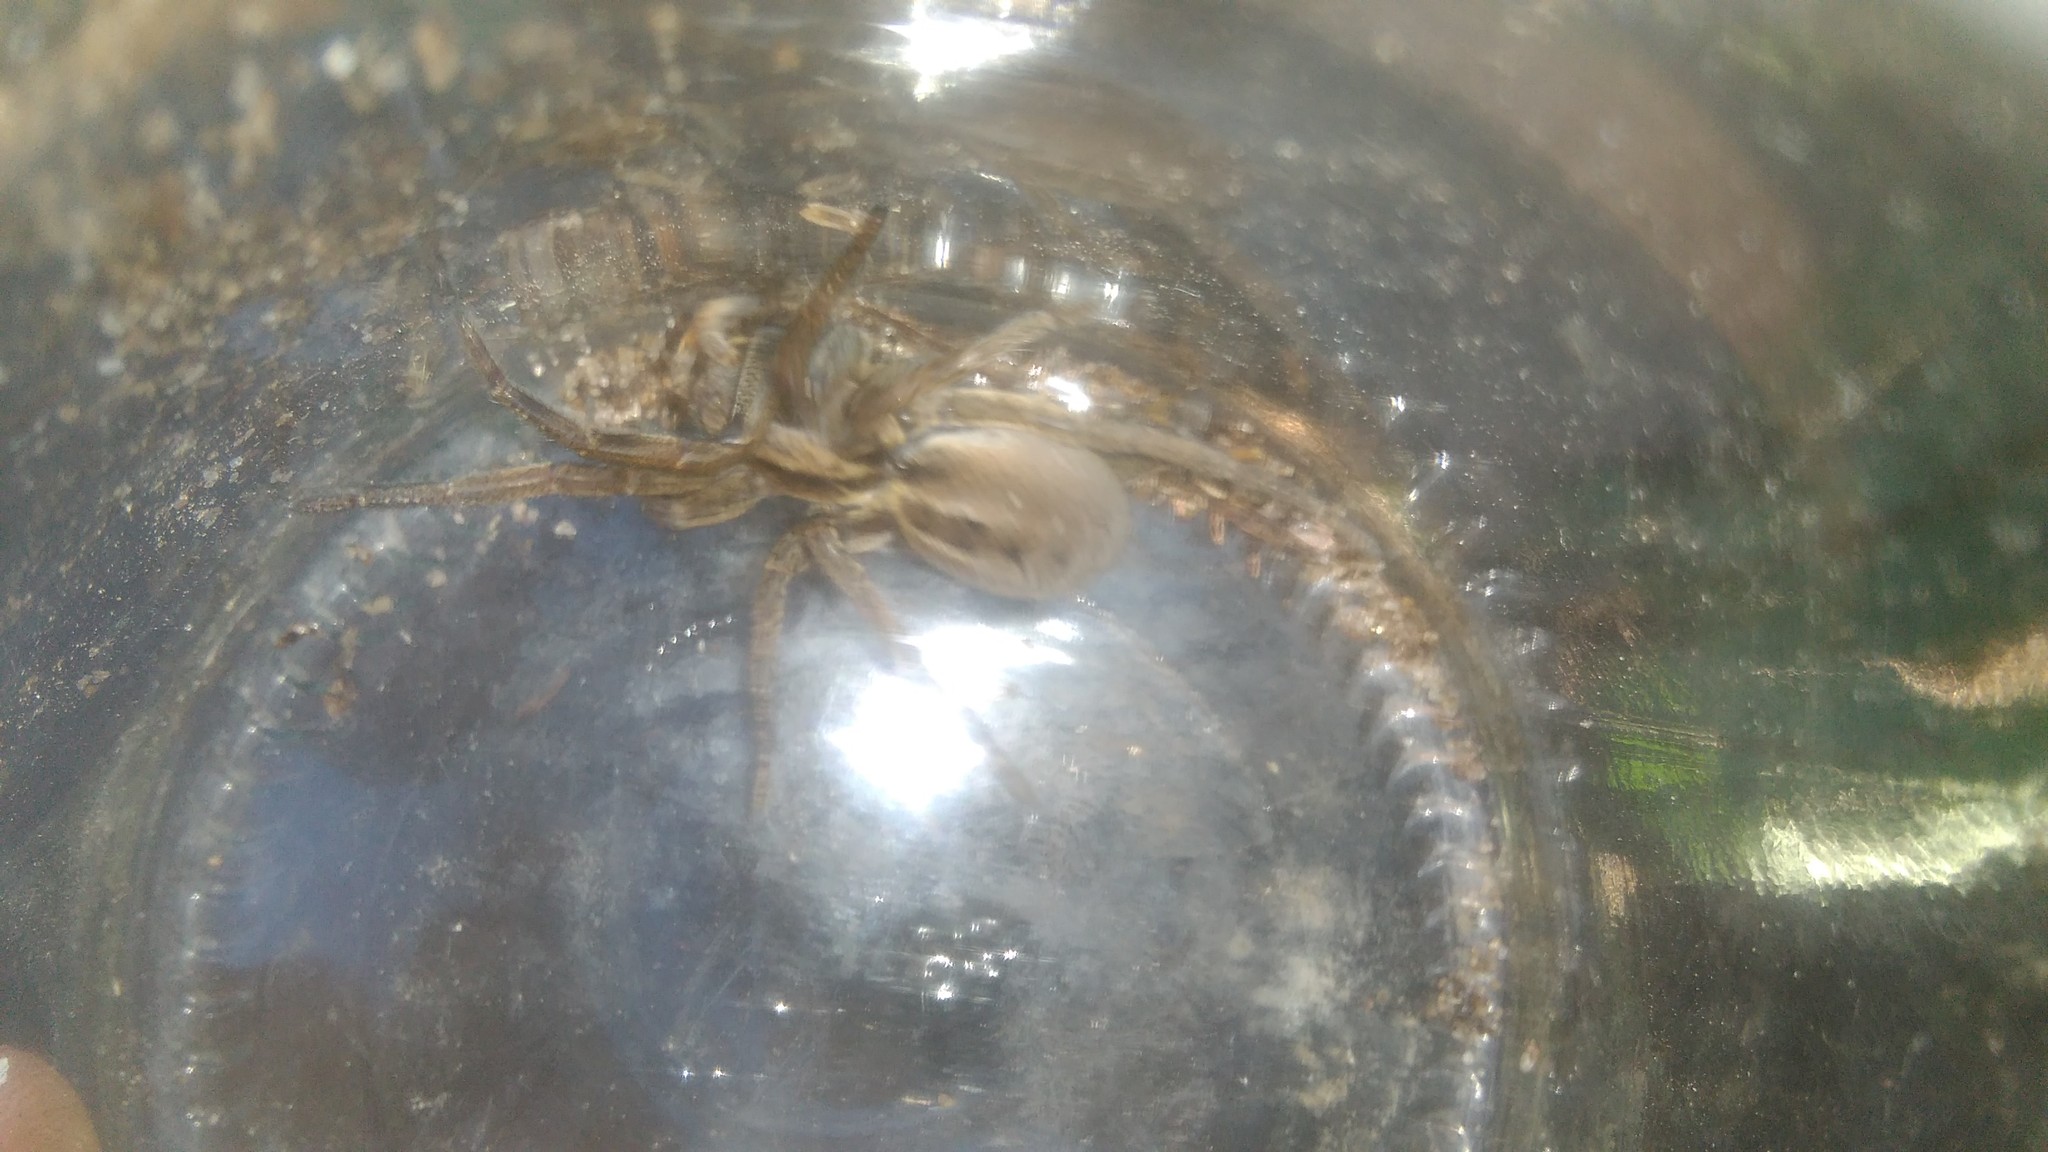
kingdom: Animalia
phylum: Arthropoda
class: Arachnida
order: Araneae
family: Lycosidae
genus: Lycosa
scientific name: Lycosa erythrognatha
